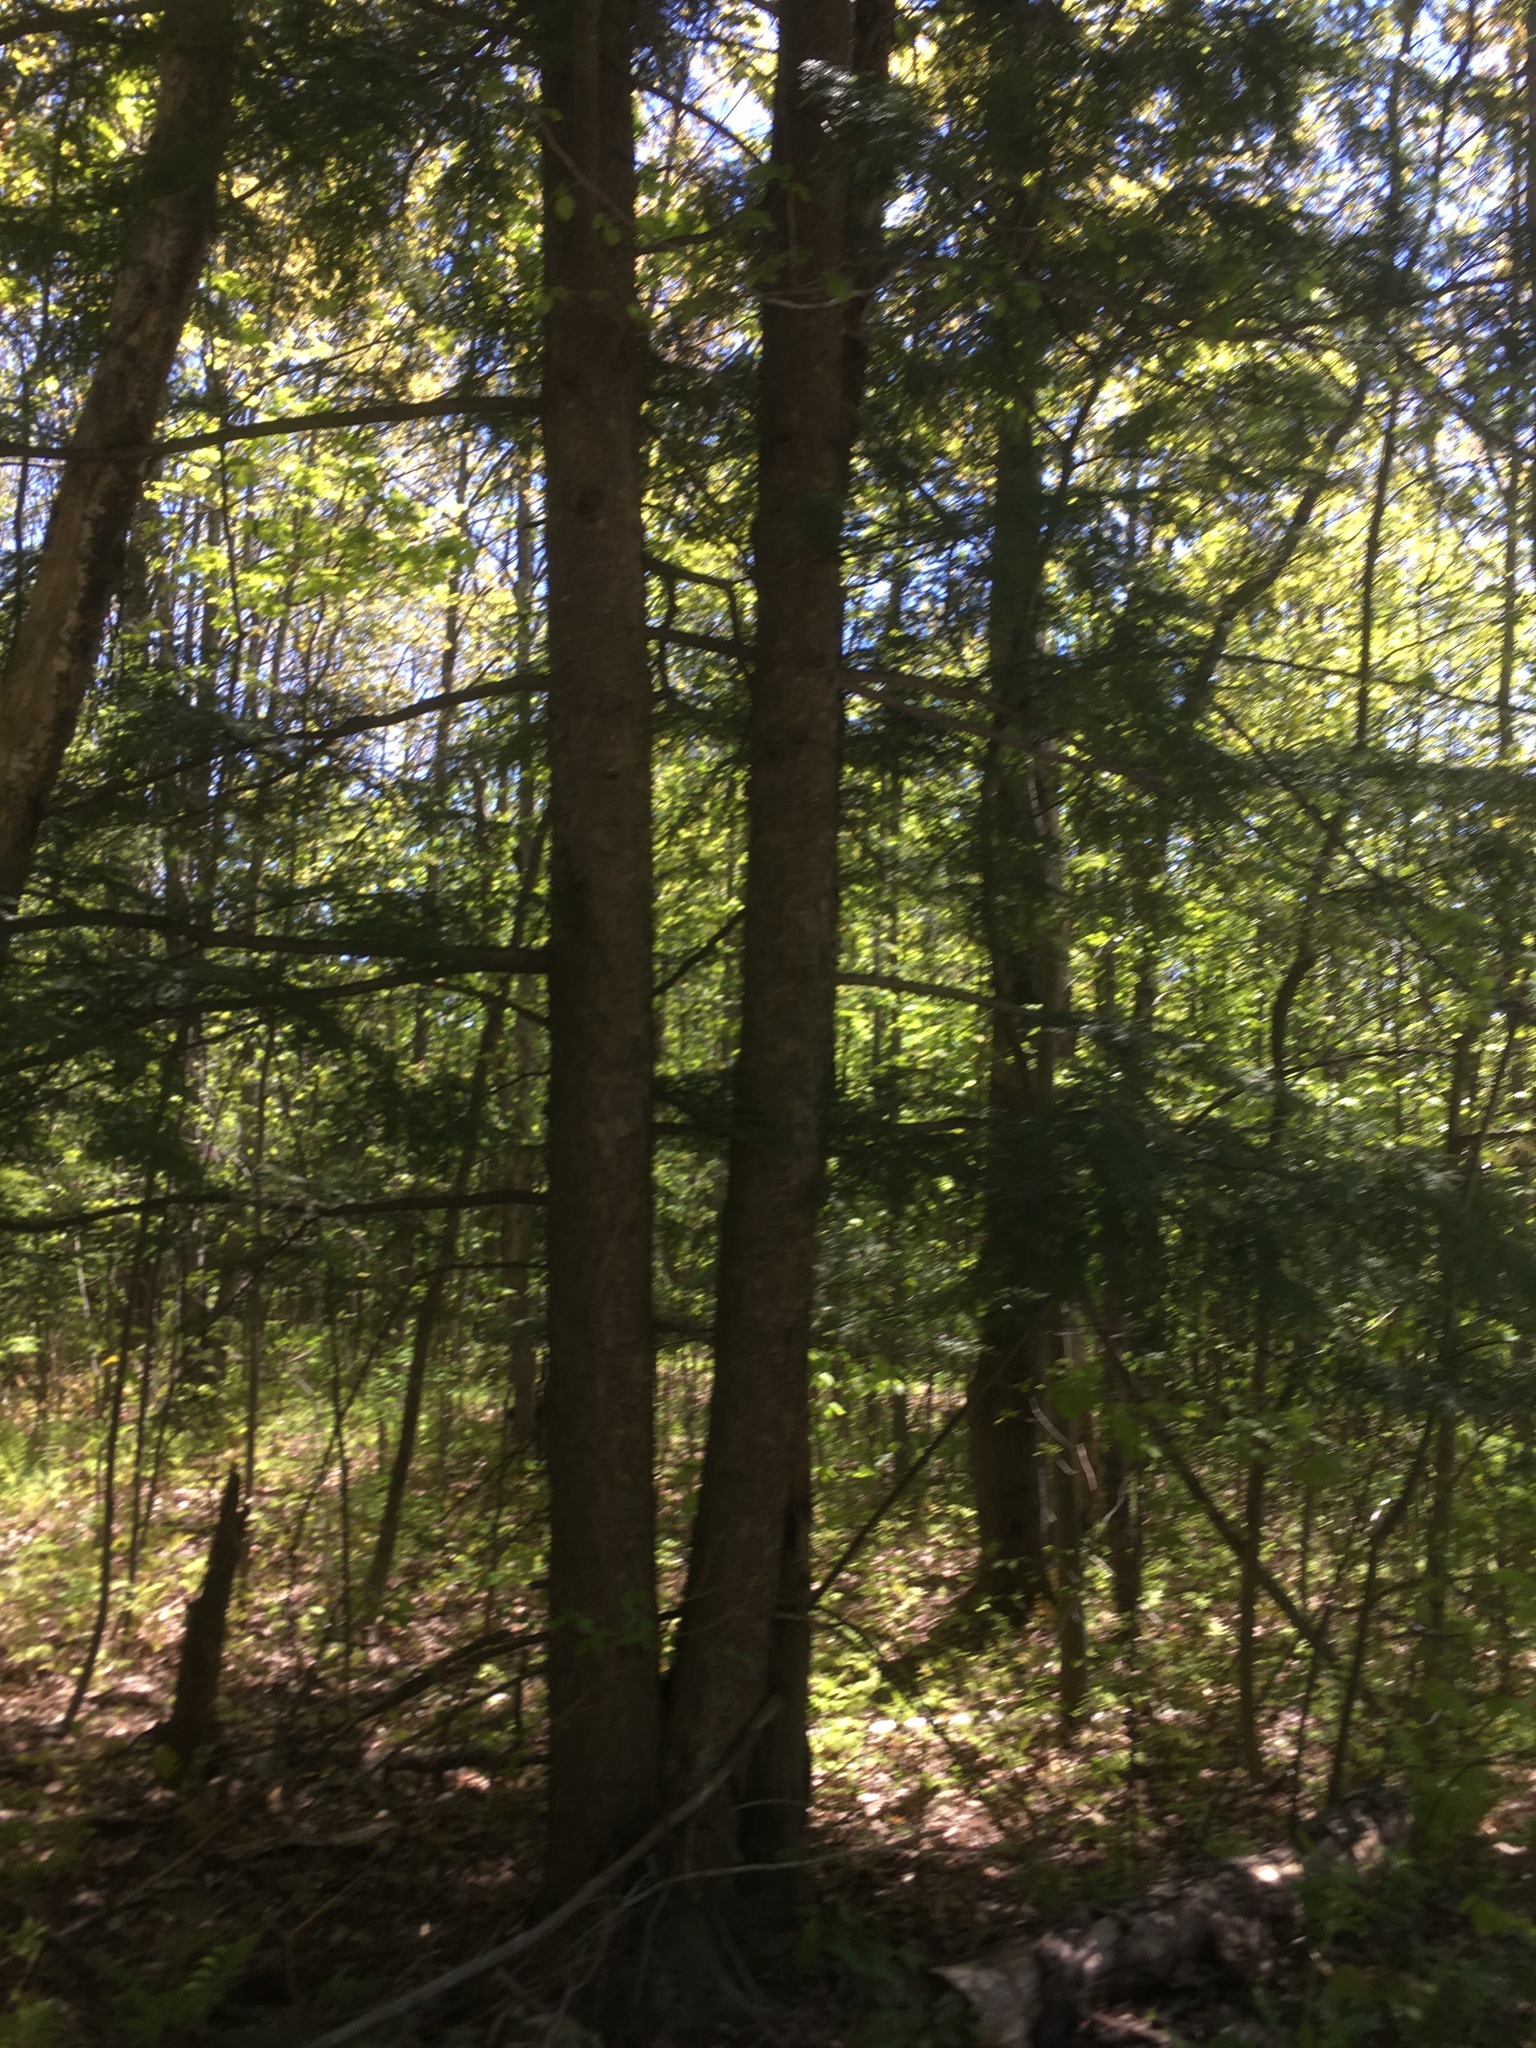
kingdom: Plantae
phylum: Tracheophyta
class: Pinopsida
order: Pinales
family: Pinaceae
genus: Tsuga
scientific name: Tsuga canadensis
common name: Eastern hemlock
